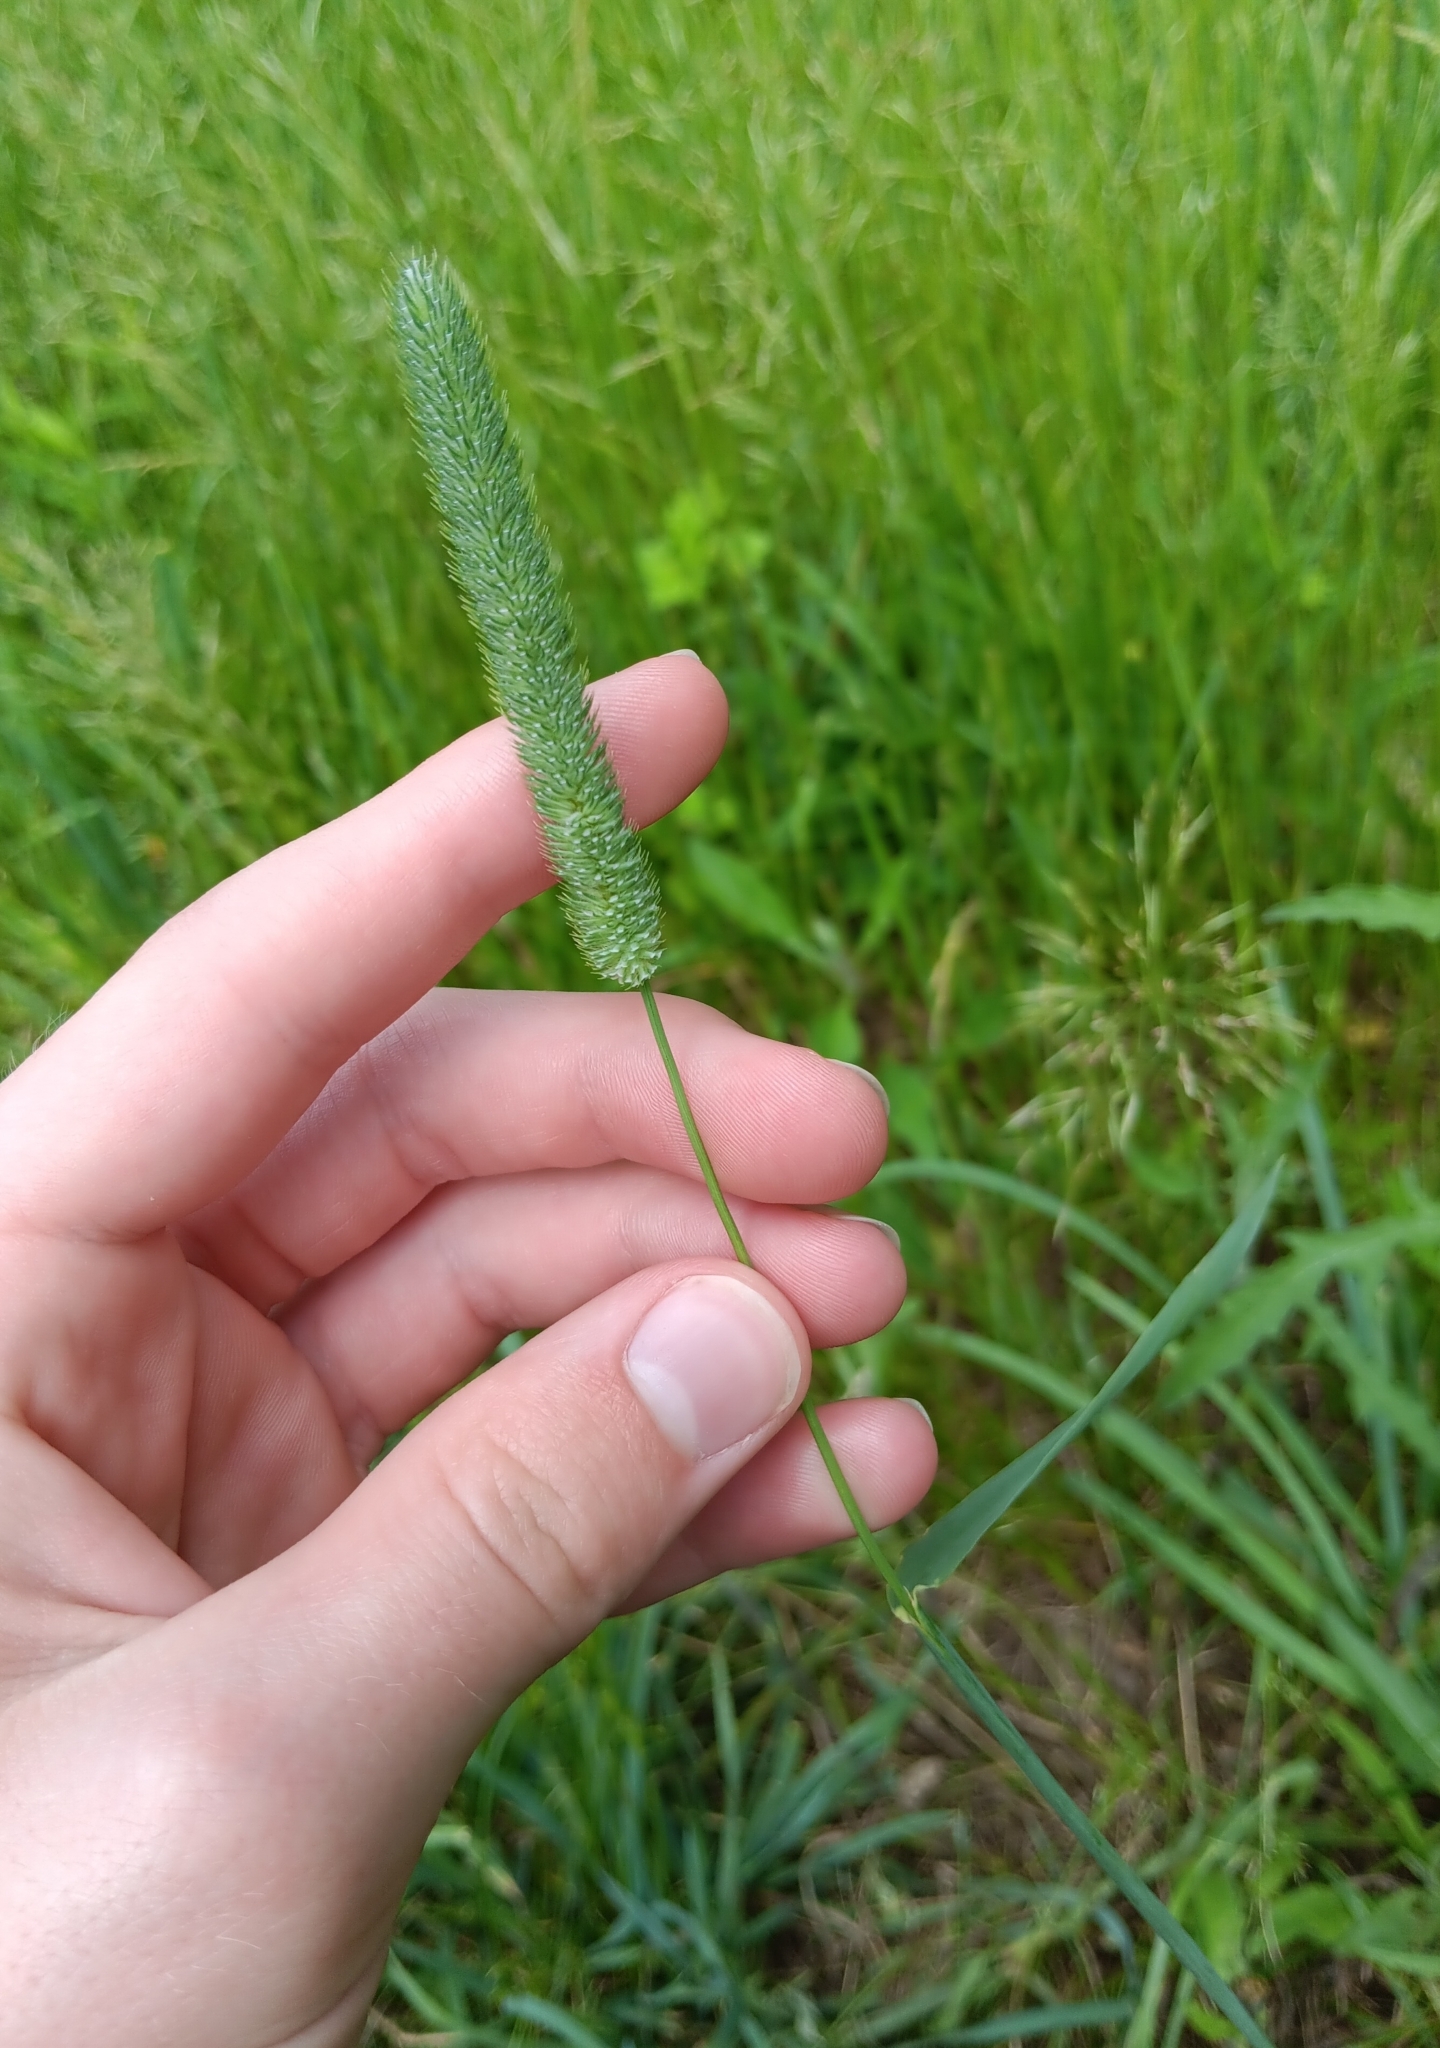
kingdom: Plantae
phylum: Tracheophyta
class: Liliopsida
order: Poales
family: Poaceae
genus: Phleum
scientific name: Phleum pratense
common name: Timothy grass
